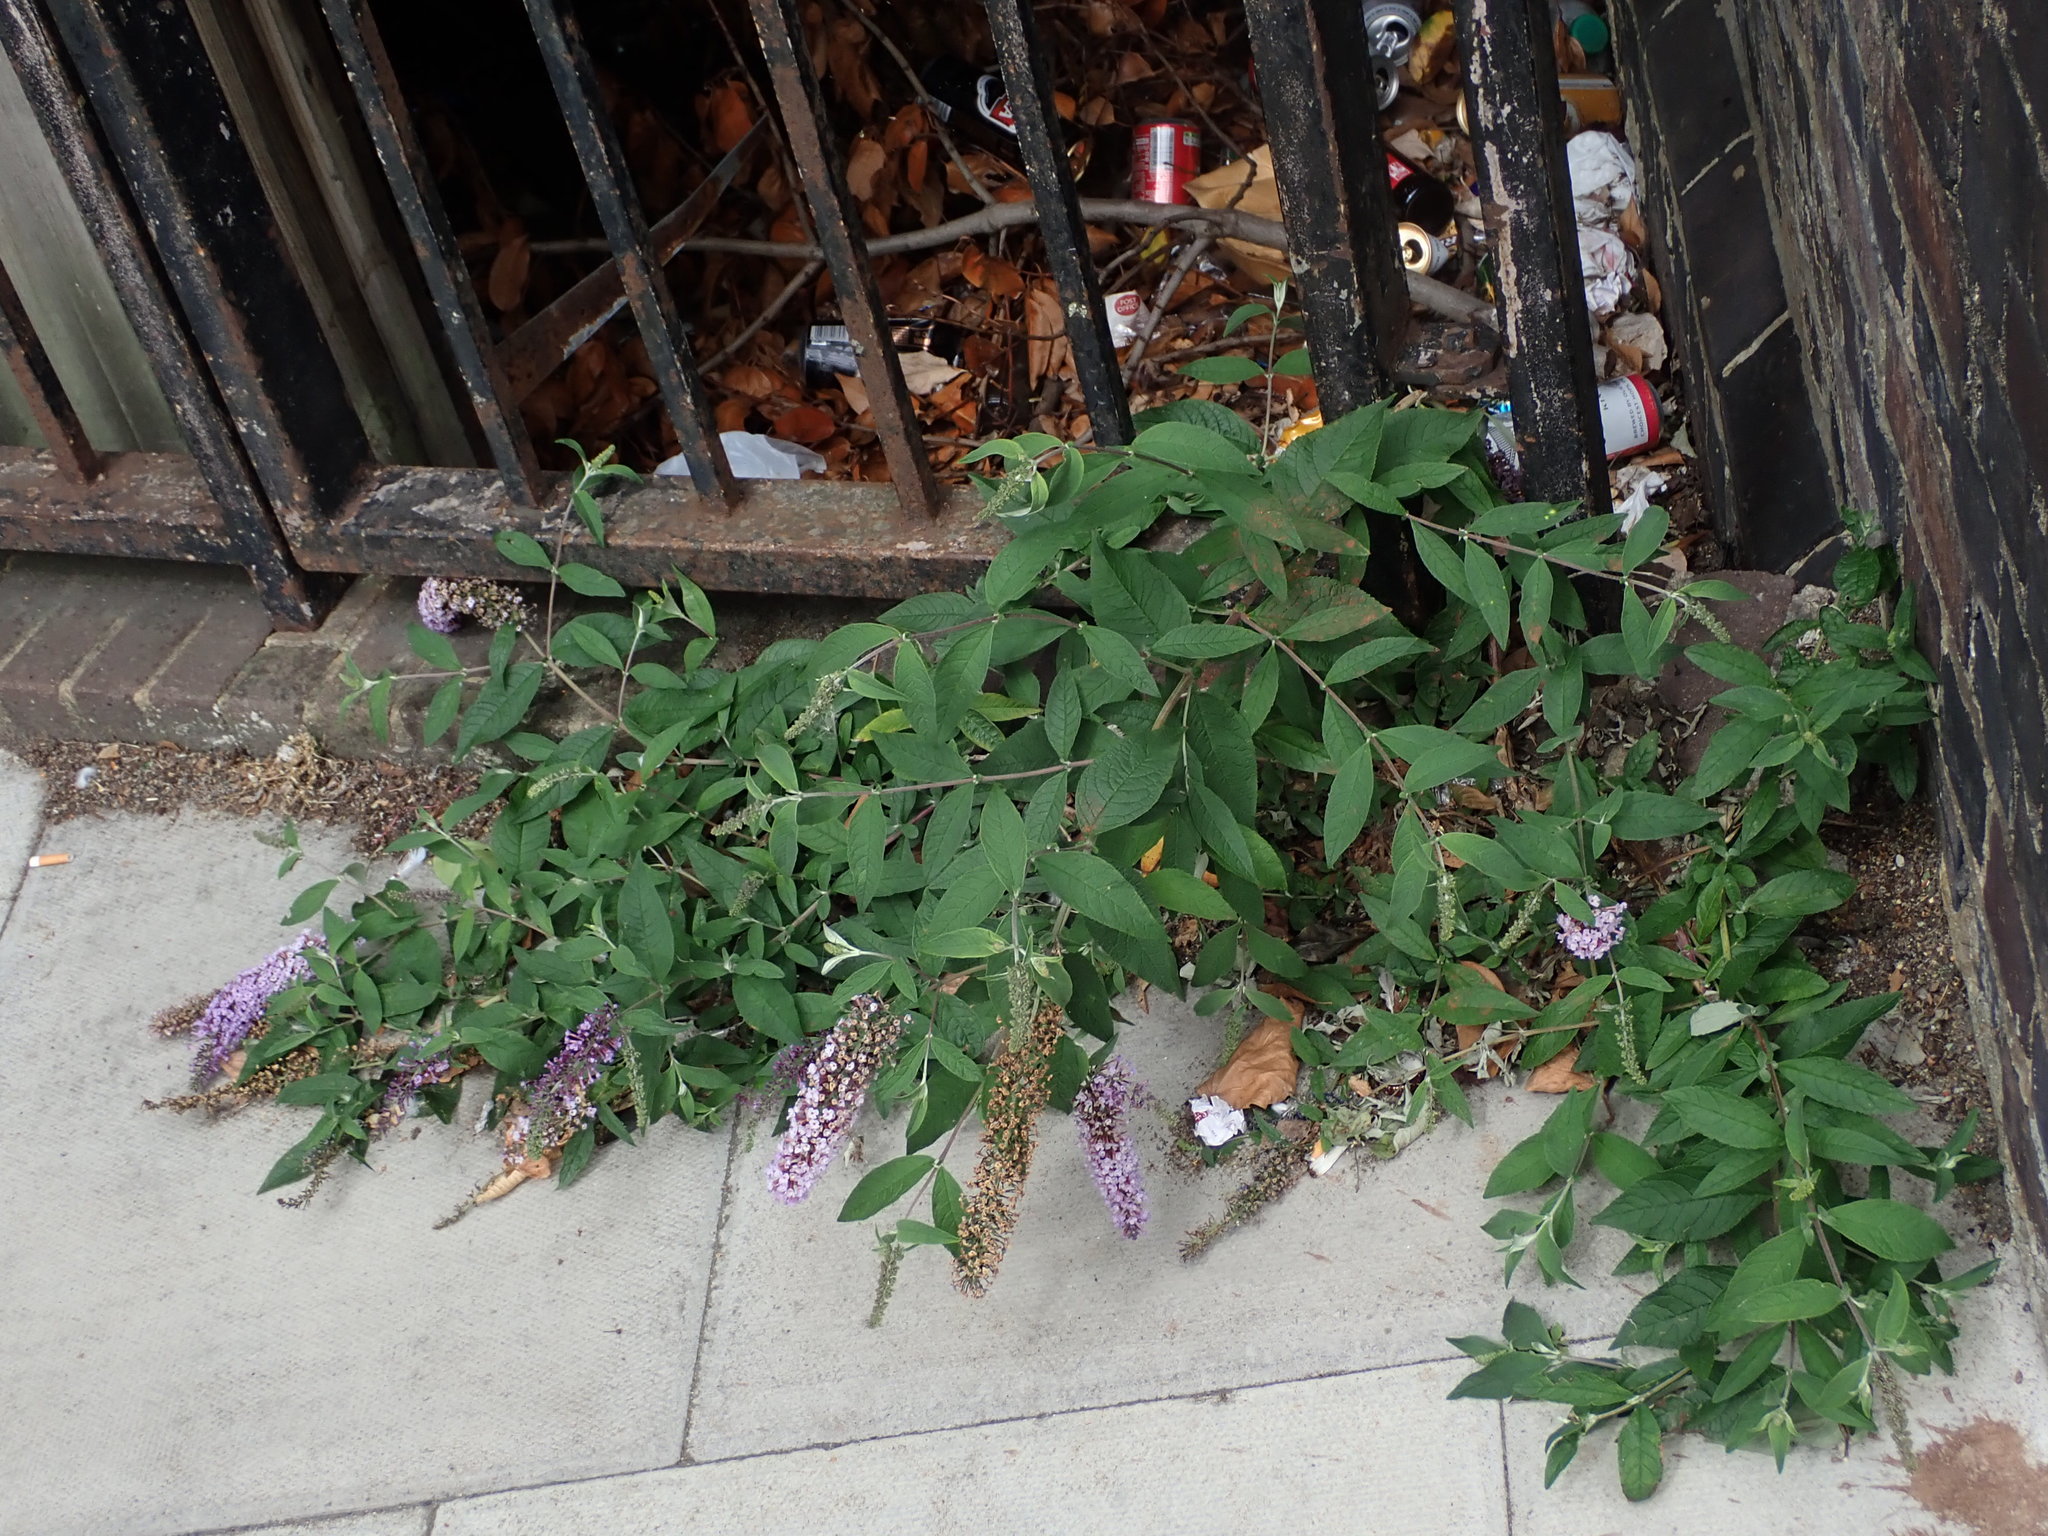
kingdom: Plantae
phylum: Tracheophyta
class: Magnoliopsida
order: Lamiales
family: Scrophulariaceae
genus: Buddleja
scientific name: Buddleja davidii
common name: Butterfly-bush
